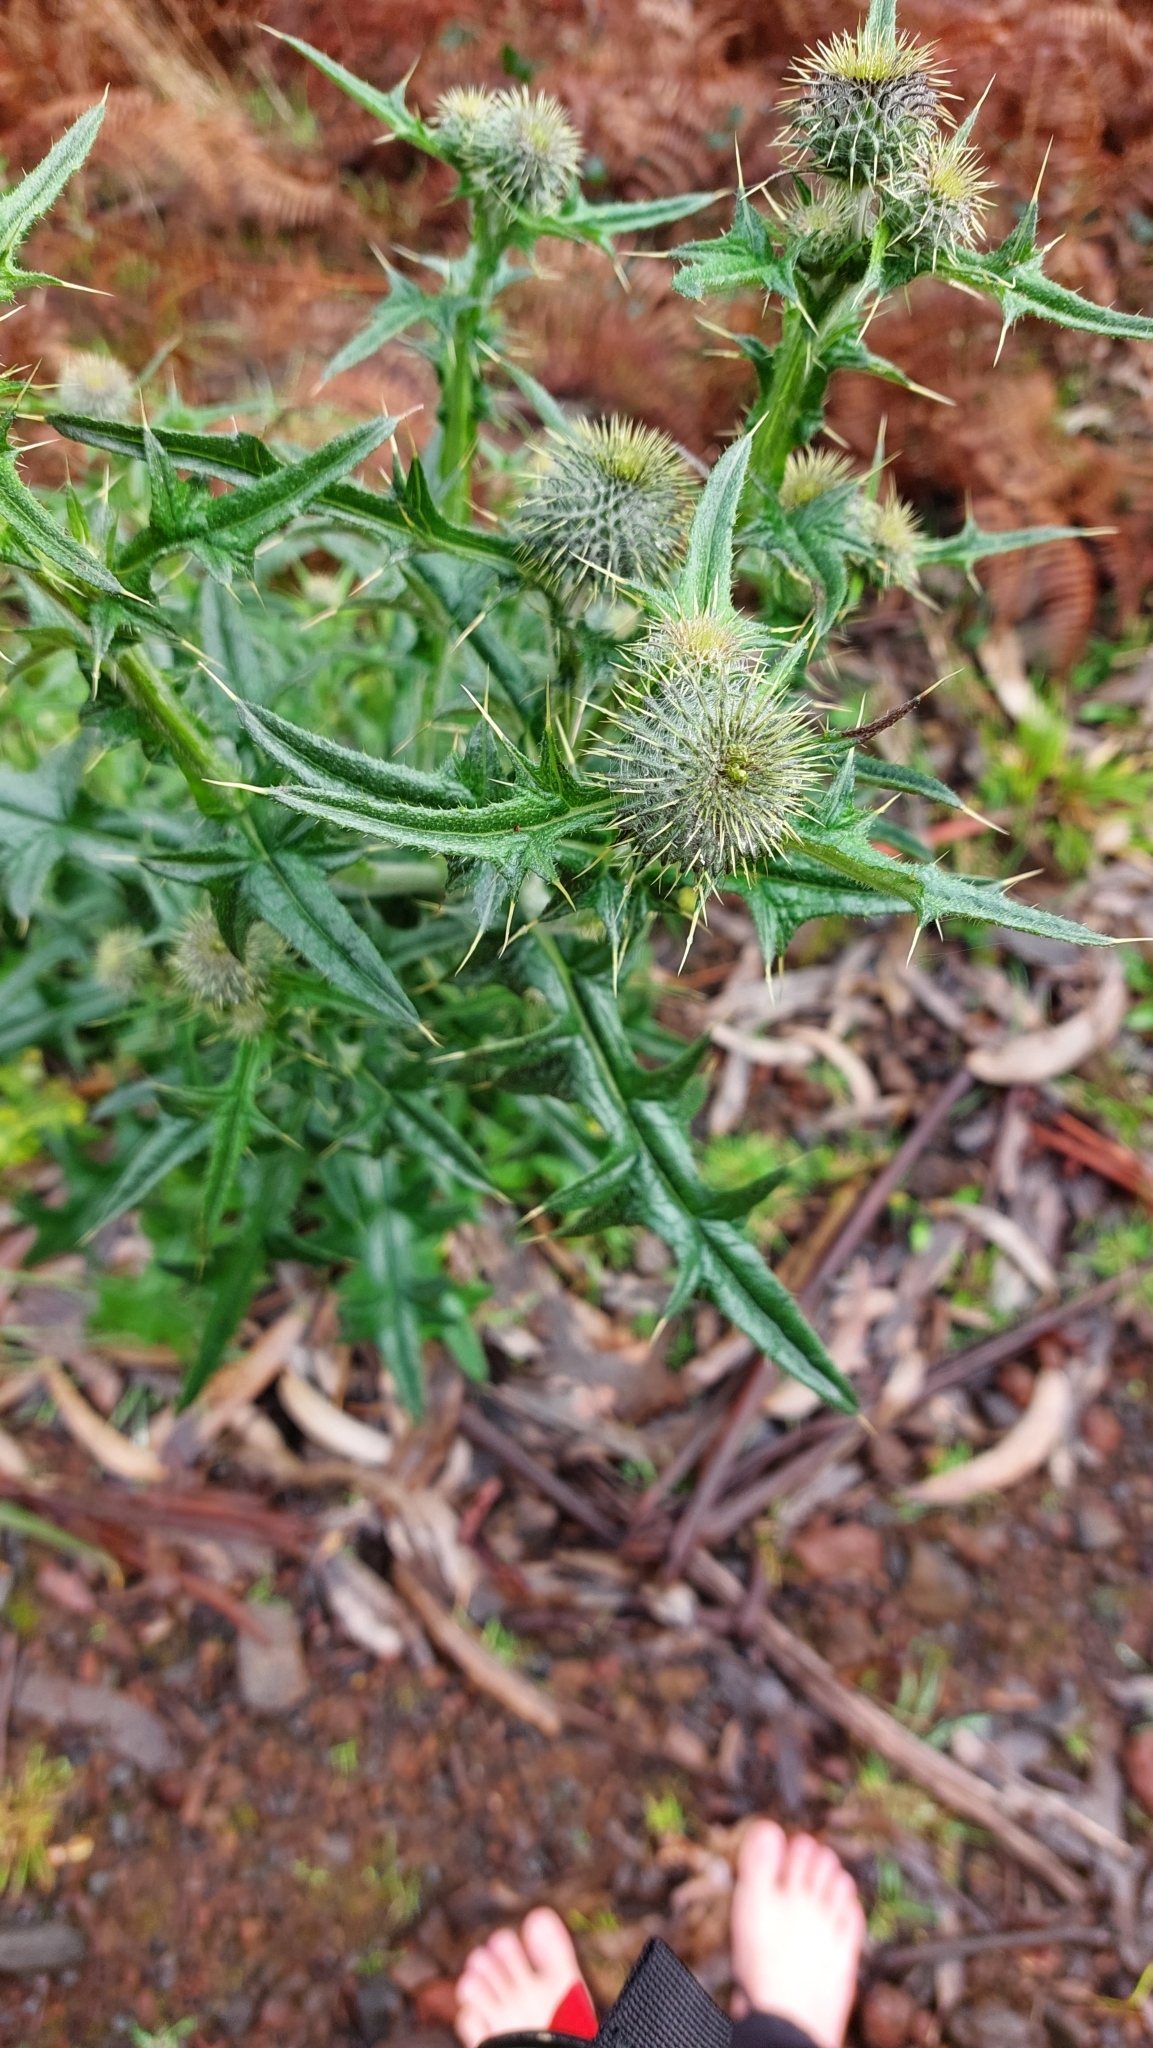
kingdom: Plantae
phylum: Tracheophyta
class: Magnoliopsida
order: Asterales
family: Asteraceae
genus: Cirsium
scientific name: Cirsium vulgare
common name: Bull thistle
